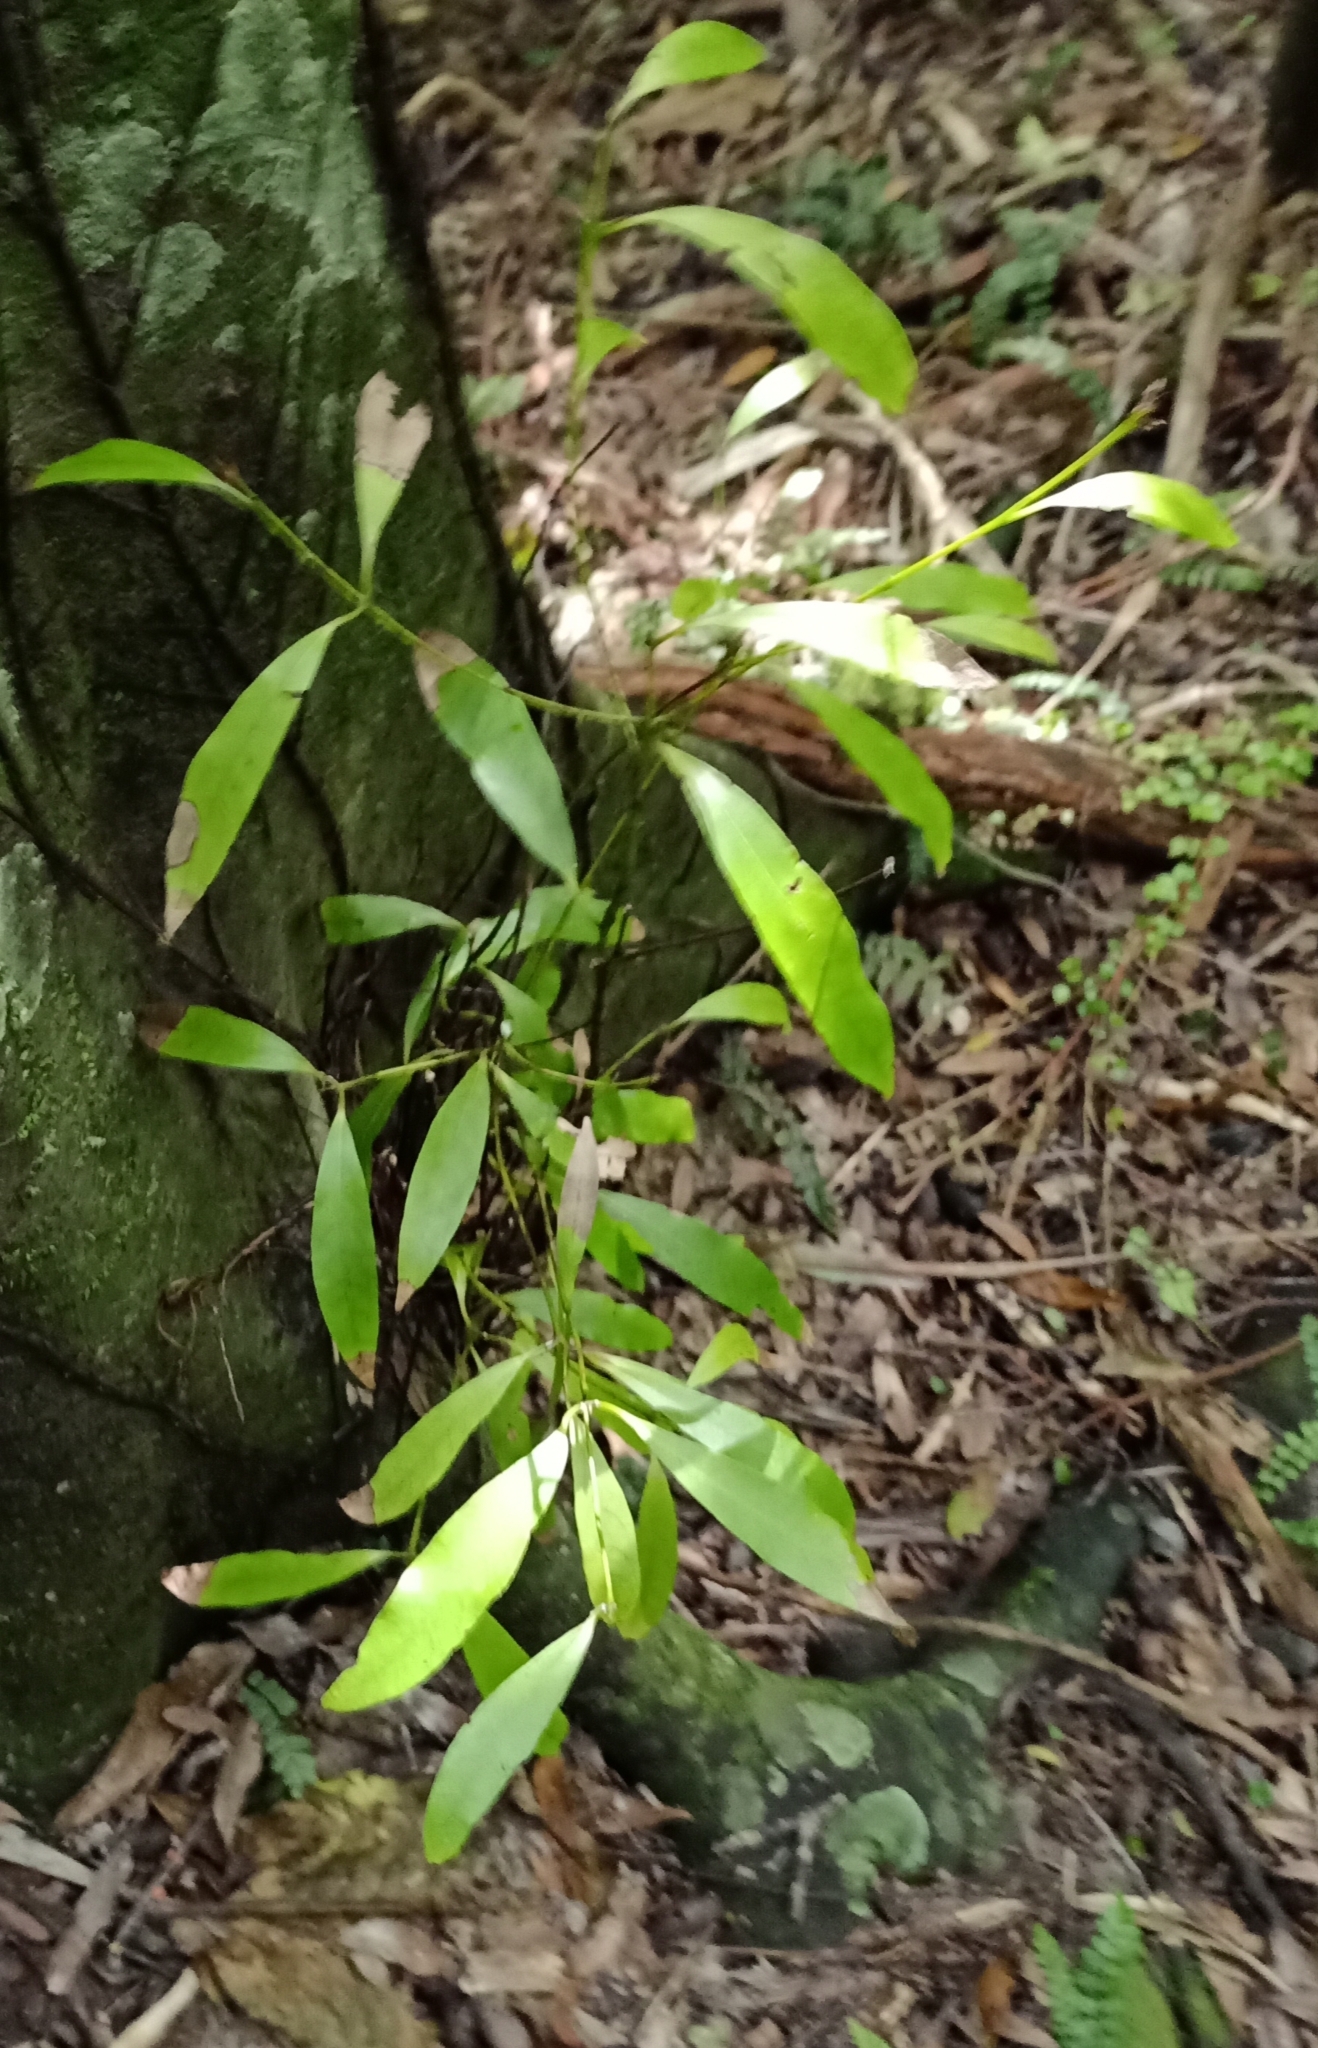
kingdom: Plantae
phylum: Tracheophyta
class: Magnoliopsida
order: Laurales
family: Lauraceae
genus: Beilschmiedia
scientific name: Beilschmiedia tawa
